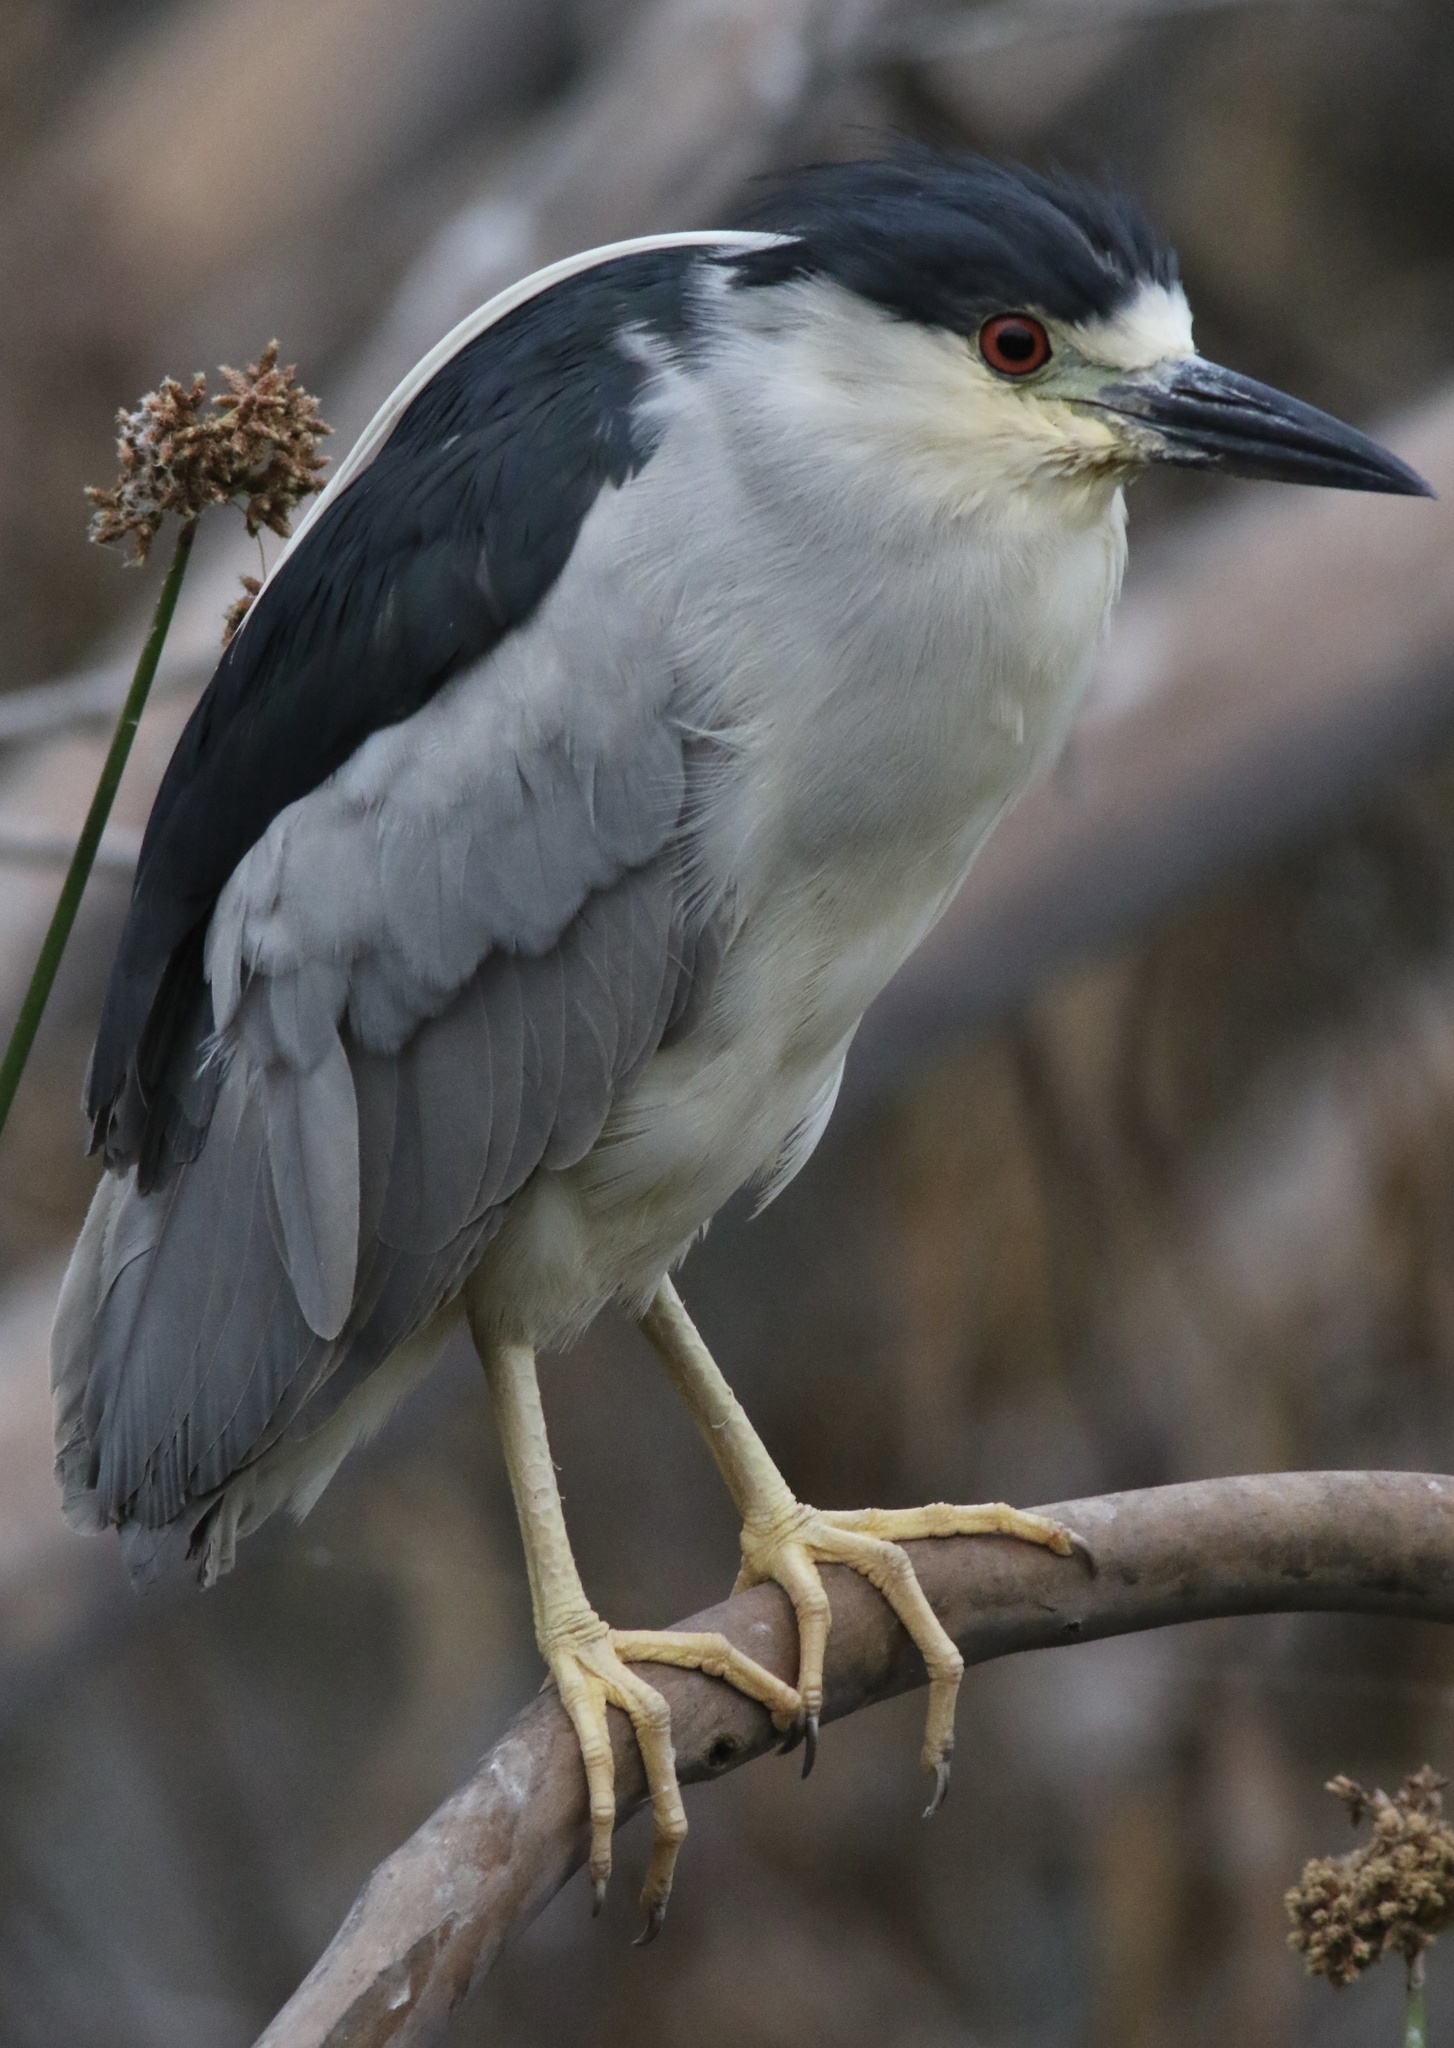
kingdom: Animalia
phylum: Chordata
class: Aves
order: Pelecaniformes
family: Ardeidae
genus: Nycticorax
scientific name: Nycticorax nycticorax
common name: Black-crowned night heron
